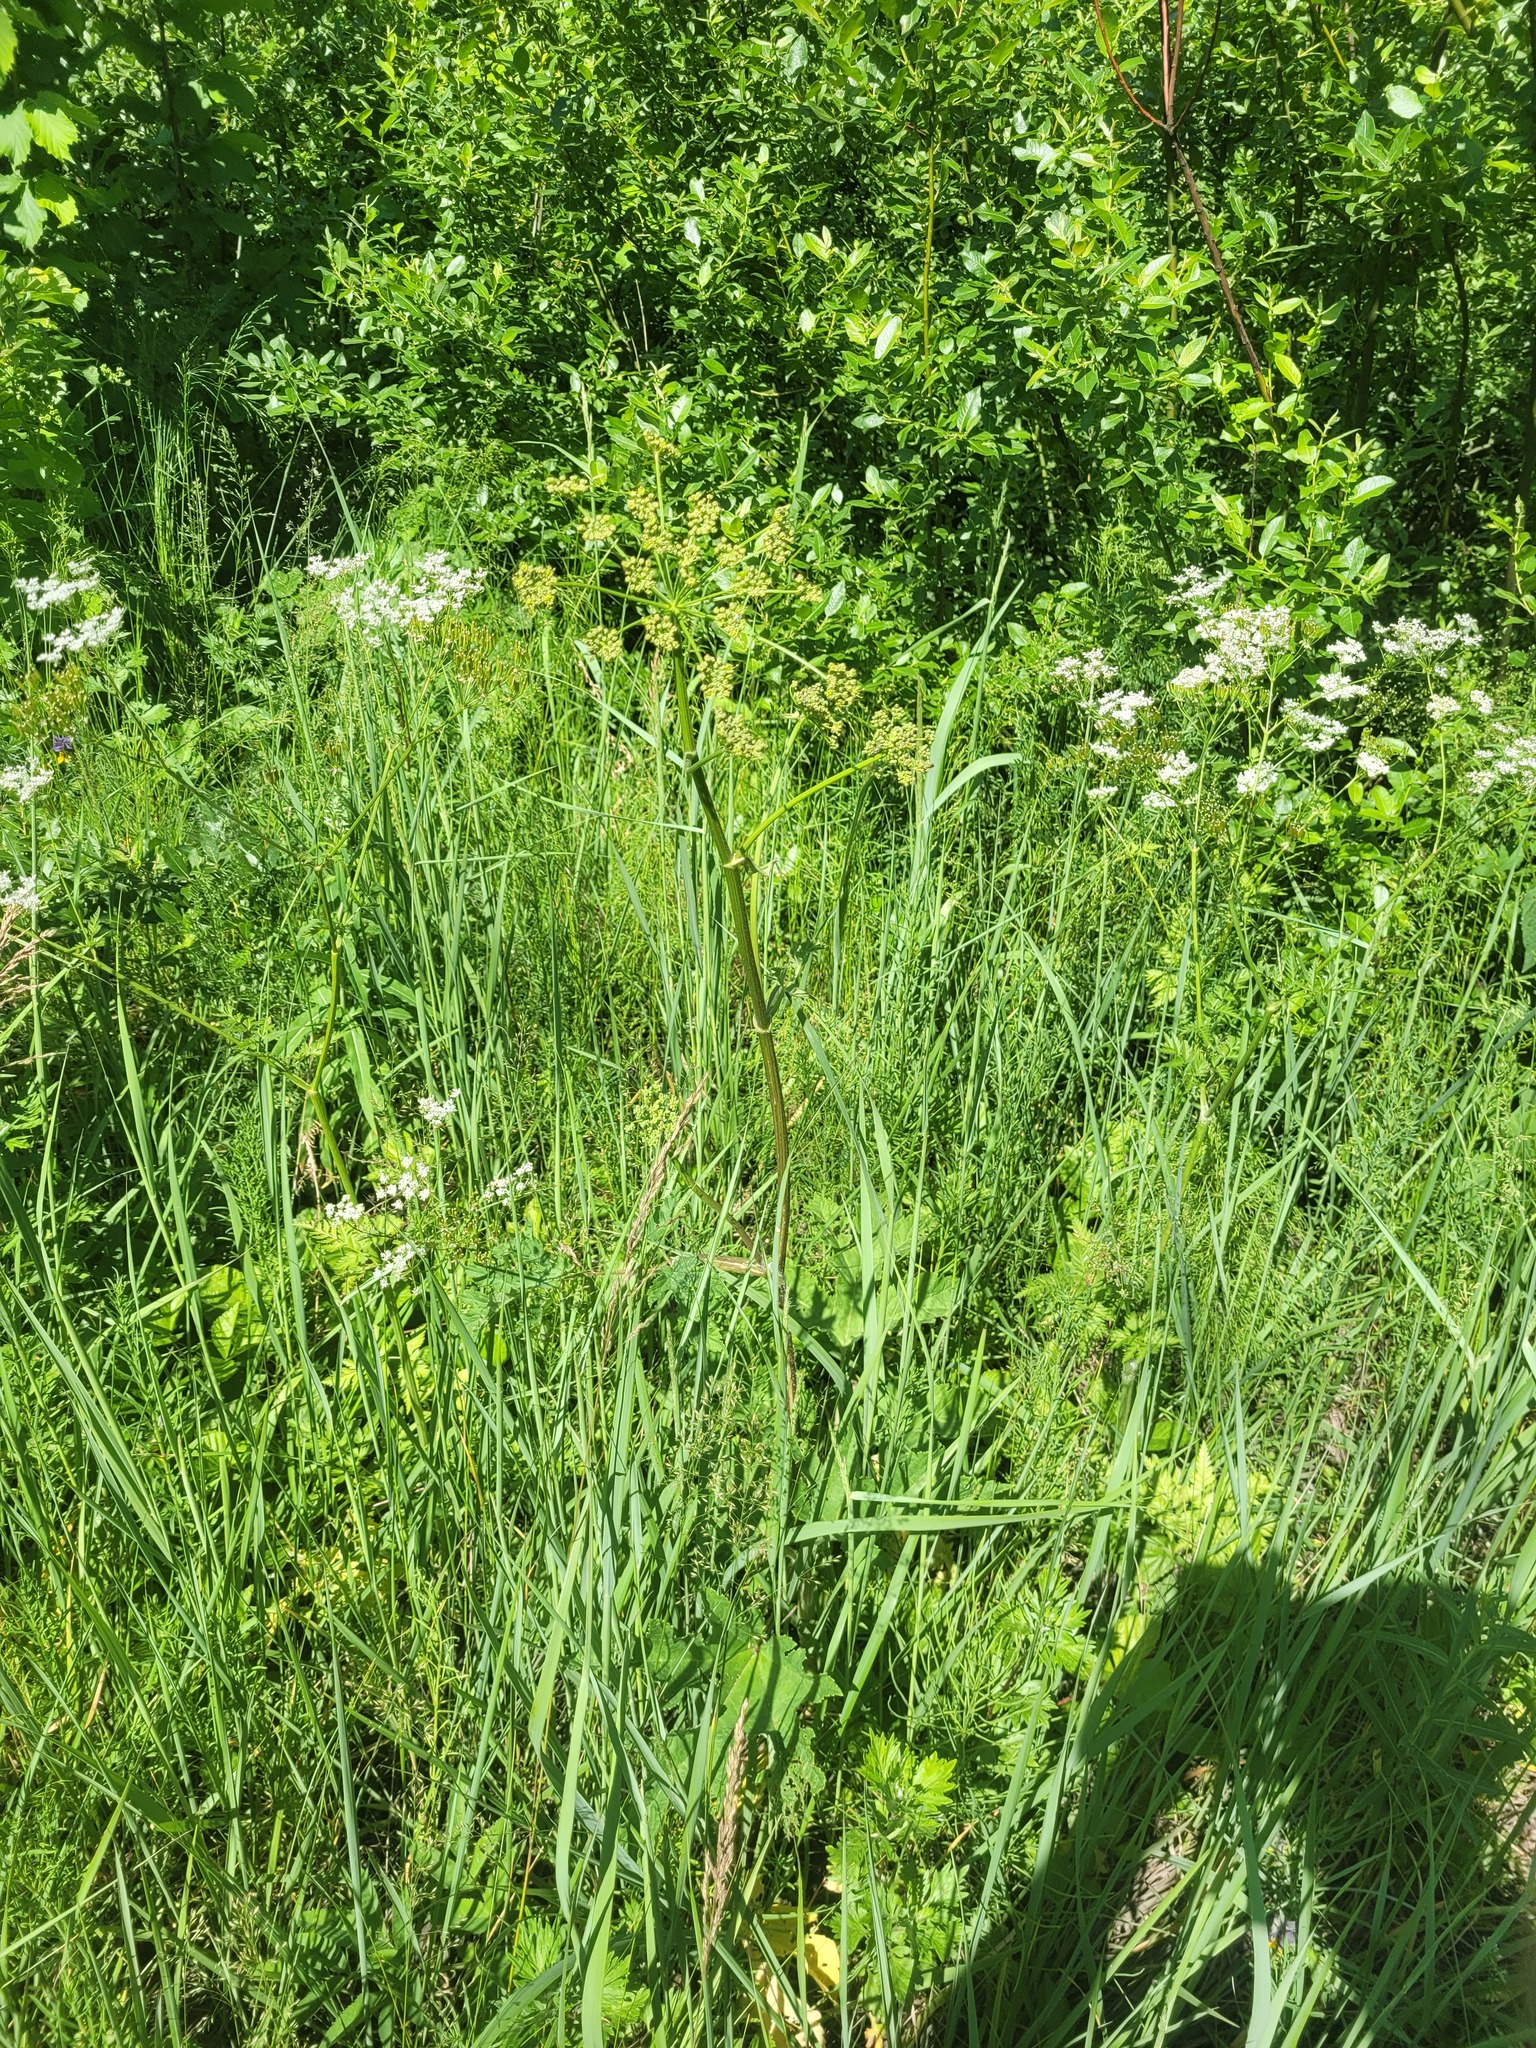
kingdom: Plantae
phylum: Tracheophyta
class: Magnoliopsida
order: Apiales
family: Apiaceae
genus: Heracleum
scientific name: Heracleum sphondylium
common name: Hogweed
